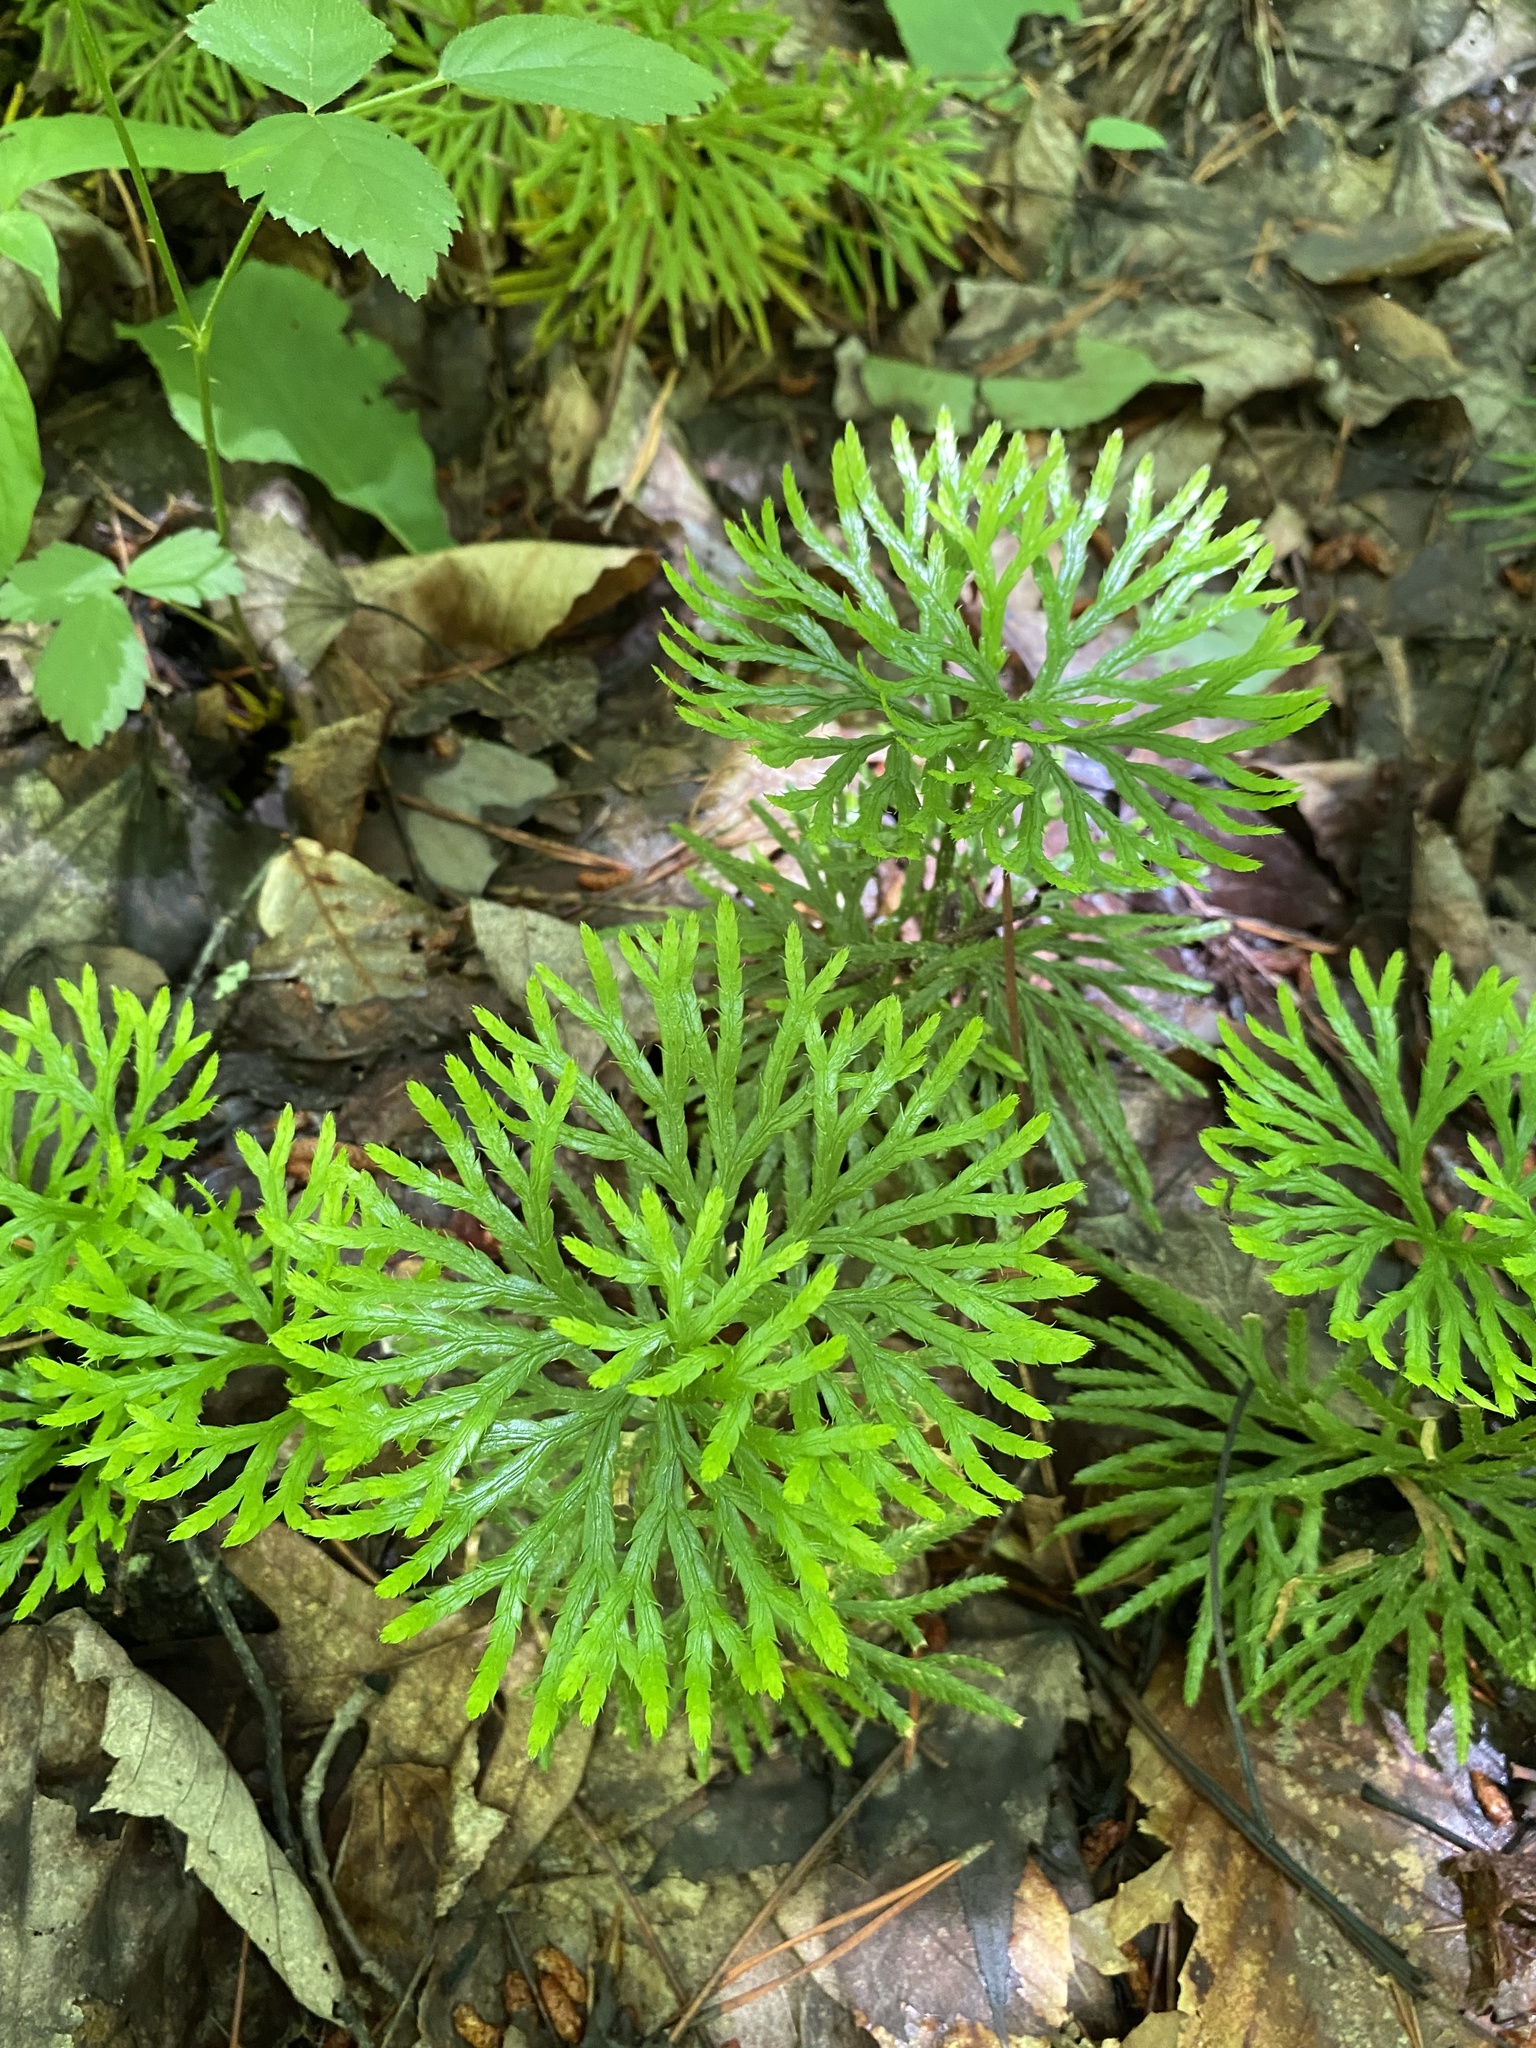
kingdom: Plantae
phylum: Tracheophyta
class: Lycopodiopsida
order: Lycopodiales
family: Lycopodiaceae
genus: Diphasiastrum
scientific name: Diphasiastrum digitatum
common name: Southern running-pine
